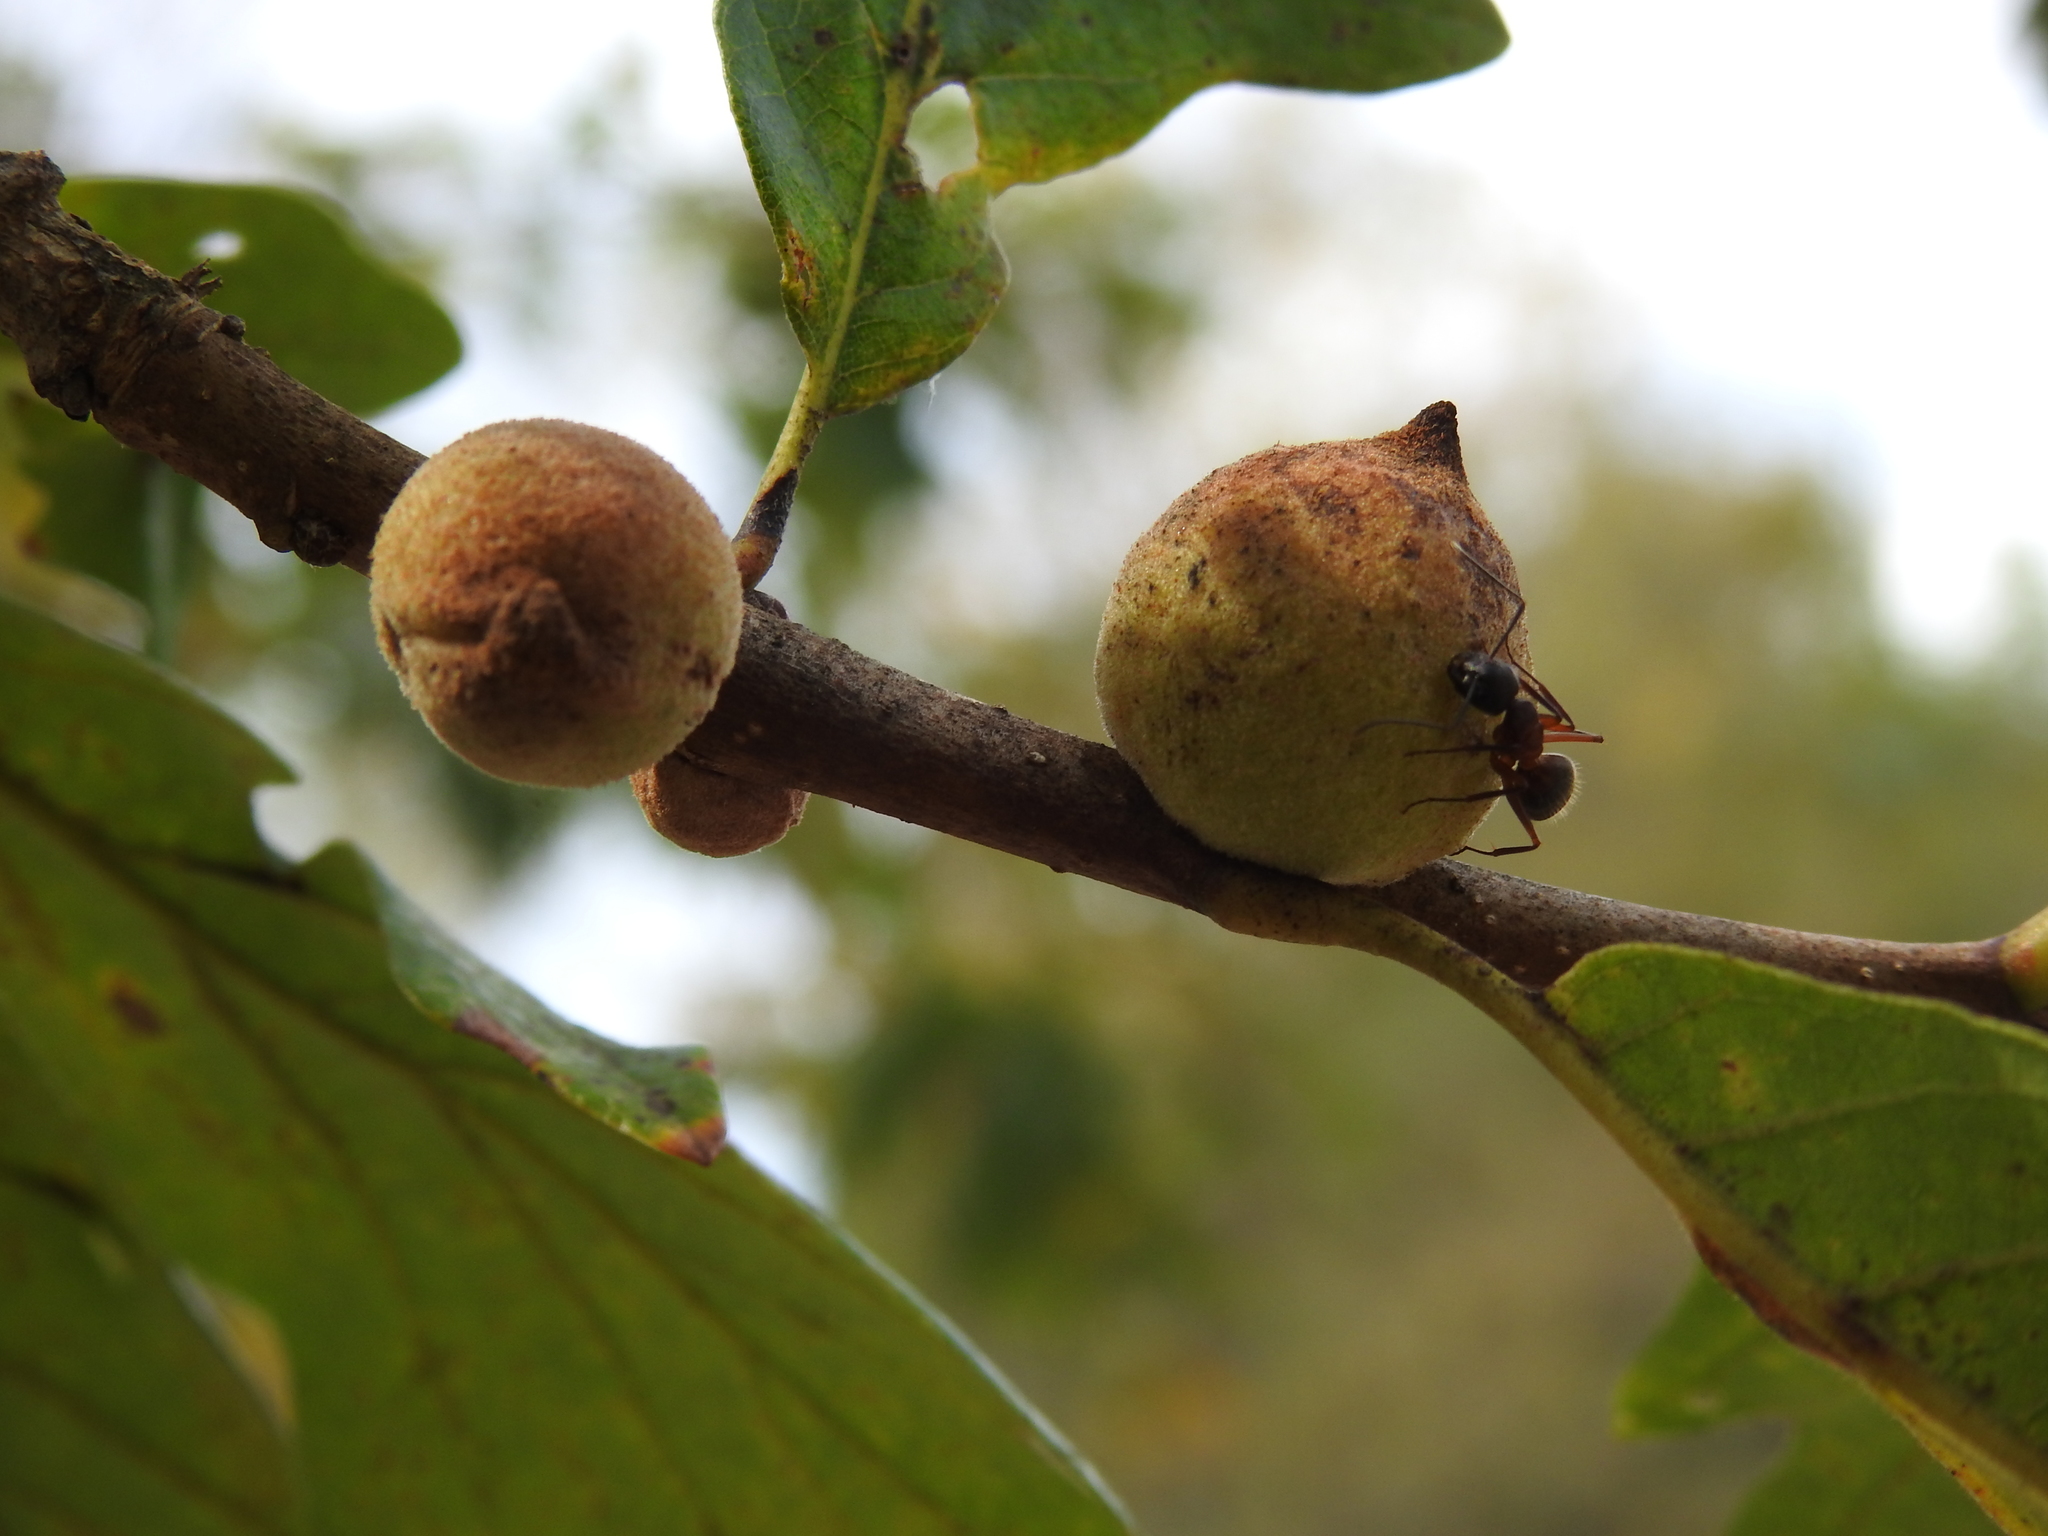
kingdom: Animalia
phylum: Arthropoda
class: Insecta
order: Hymenoptera
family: Cynipidae
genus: Disholcaspis
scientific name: Disholcaspis
